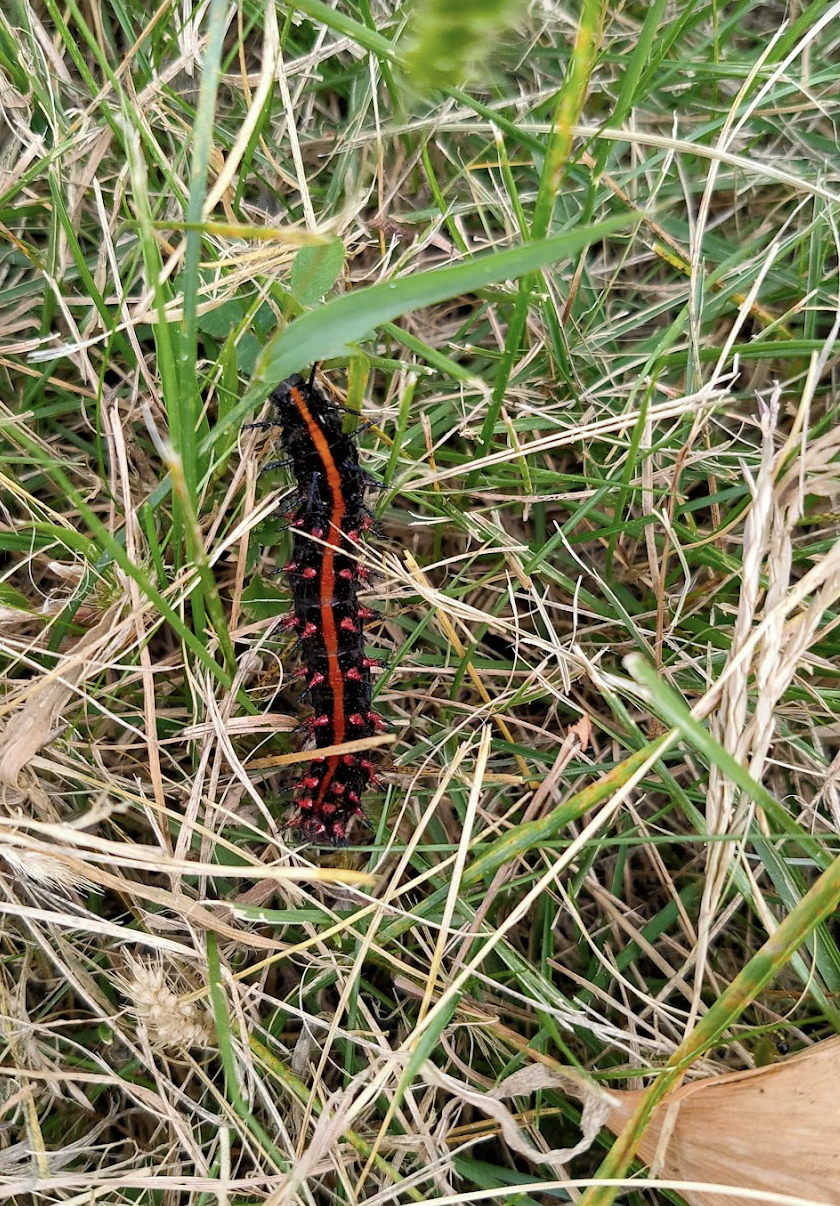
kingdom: Animalia
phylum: Arthropoda
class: Insecta
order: Lepidoptera
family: Nymphalidae
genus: Argynnis
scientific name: Argynnis hyperbius
